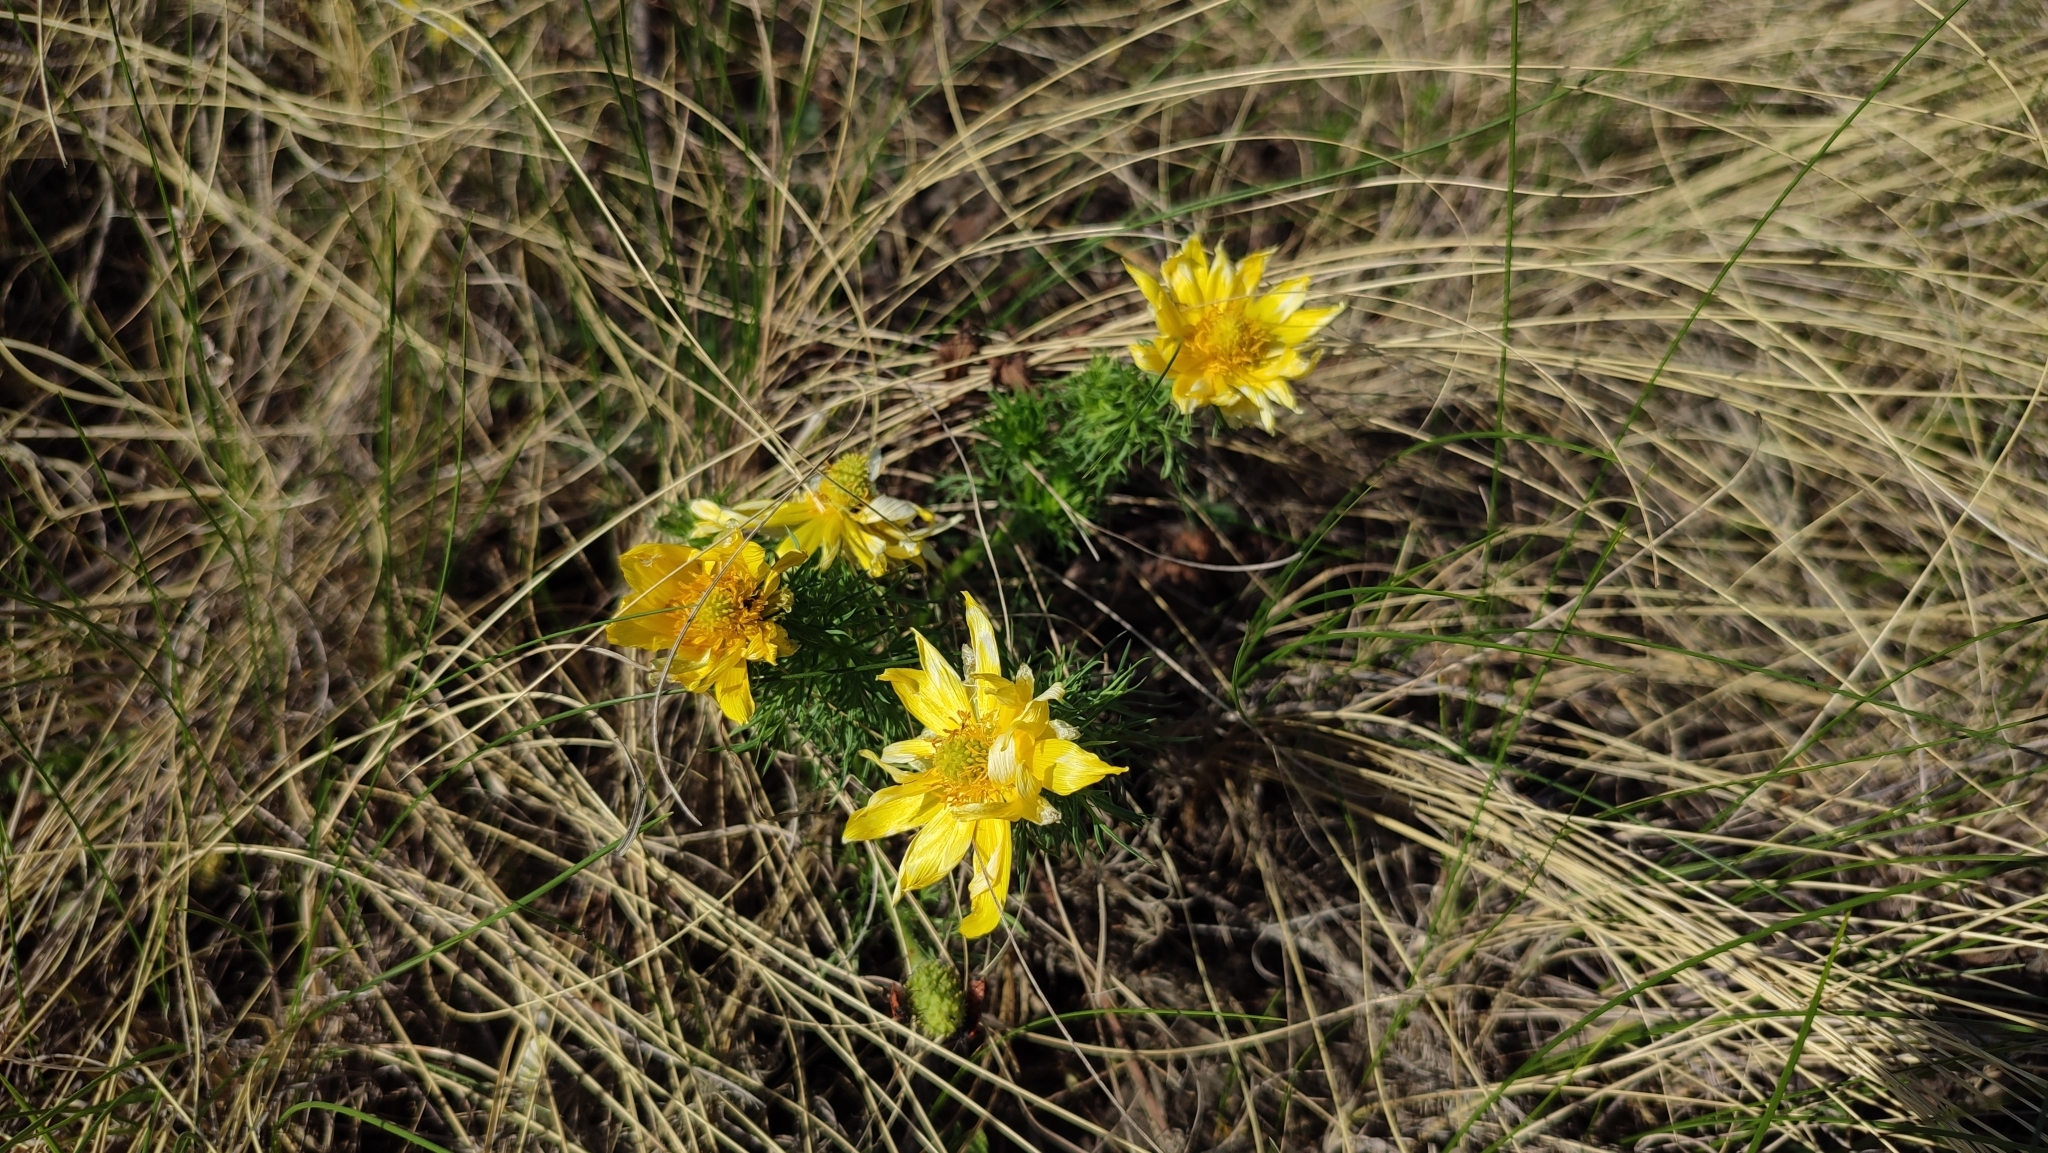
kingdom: Plantae
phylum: Tracheophyta
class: Magnoliopsida
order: Ranunculales
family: Ranunculaceae
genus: Adonis
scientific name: Adonis vernalis
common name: Yellow pheasants-eye
